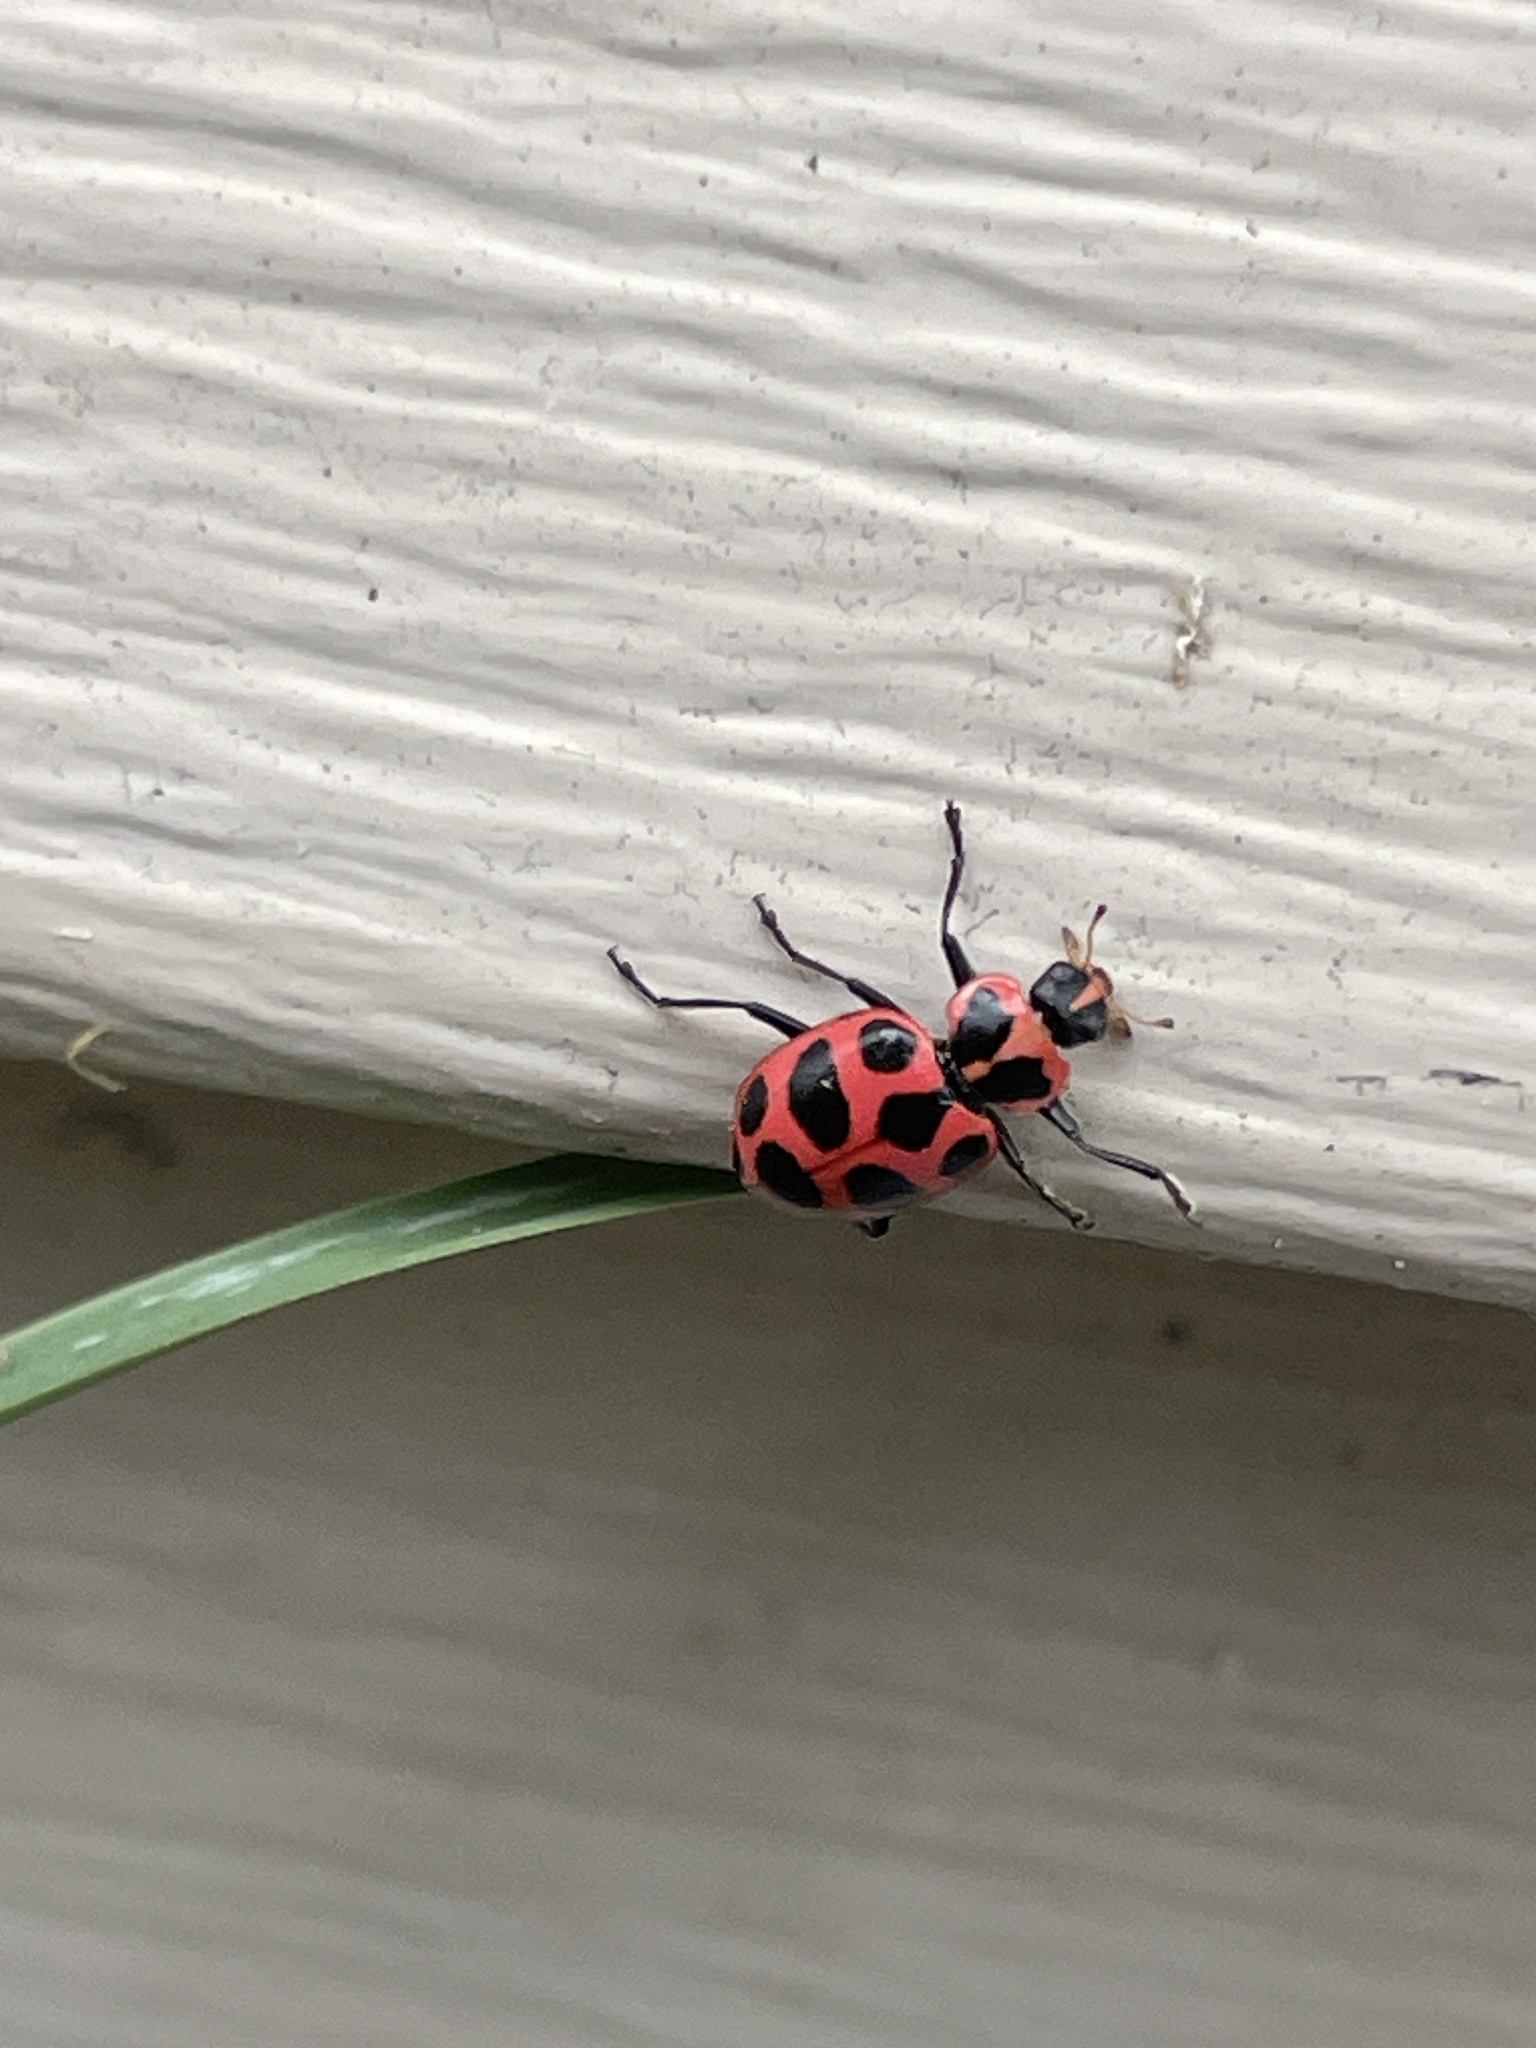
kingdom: Animalia
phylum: Arthropoda
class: Insecta
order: Coleoptera
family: Coccinellidae
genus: Coleomegilla
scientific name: Coleomegilla maculata
